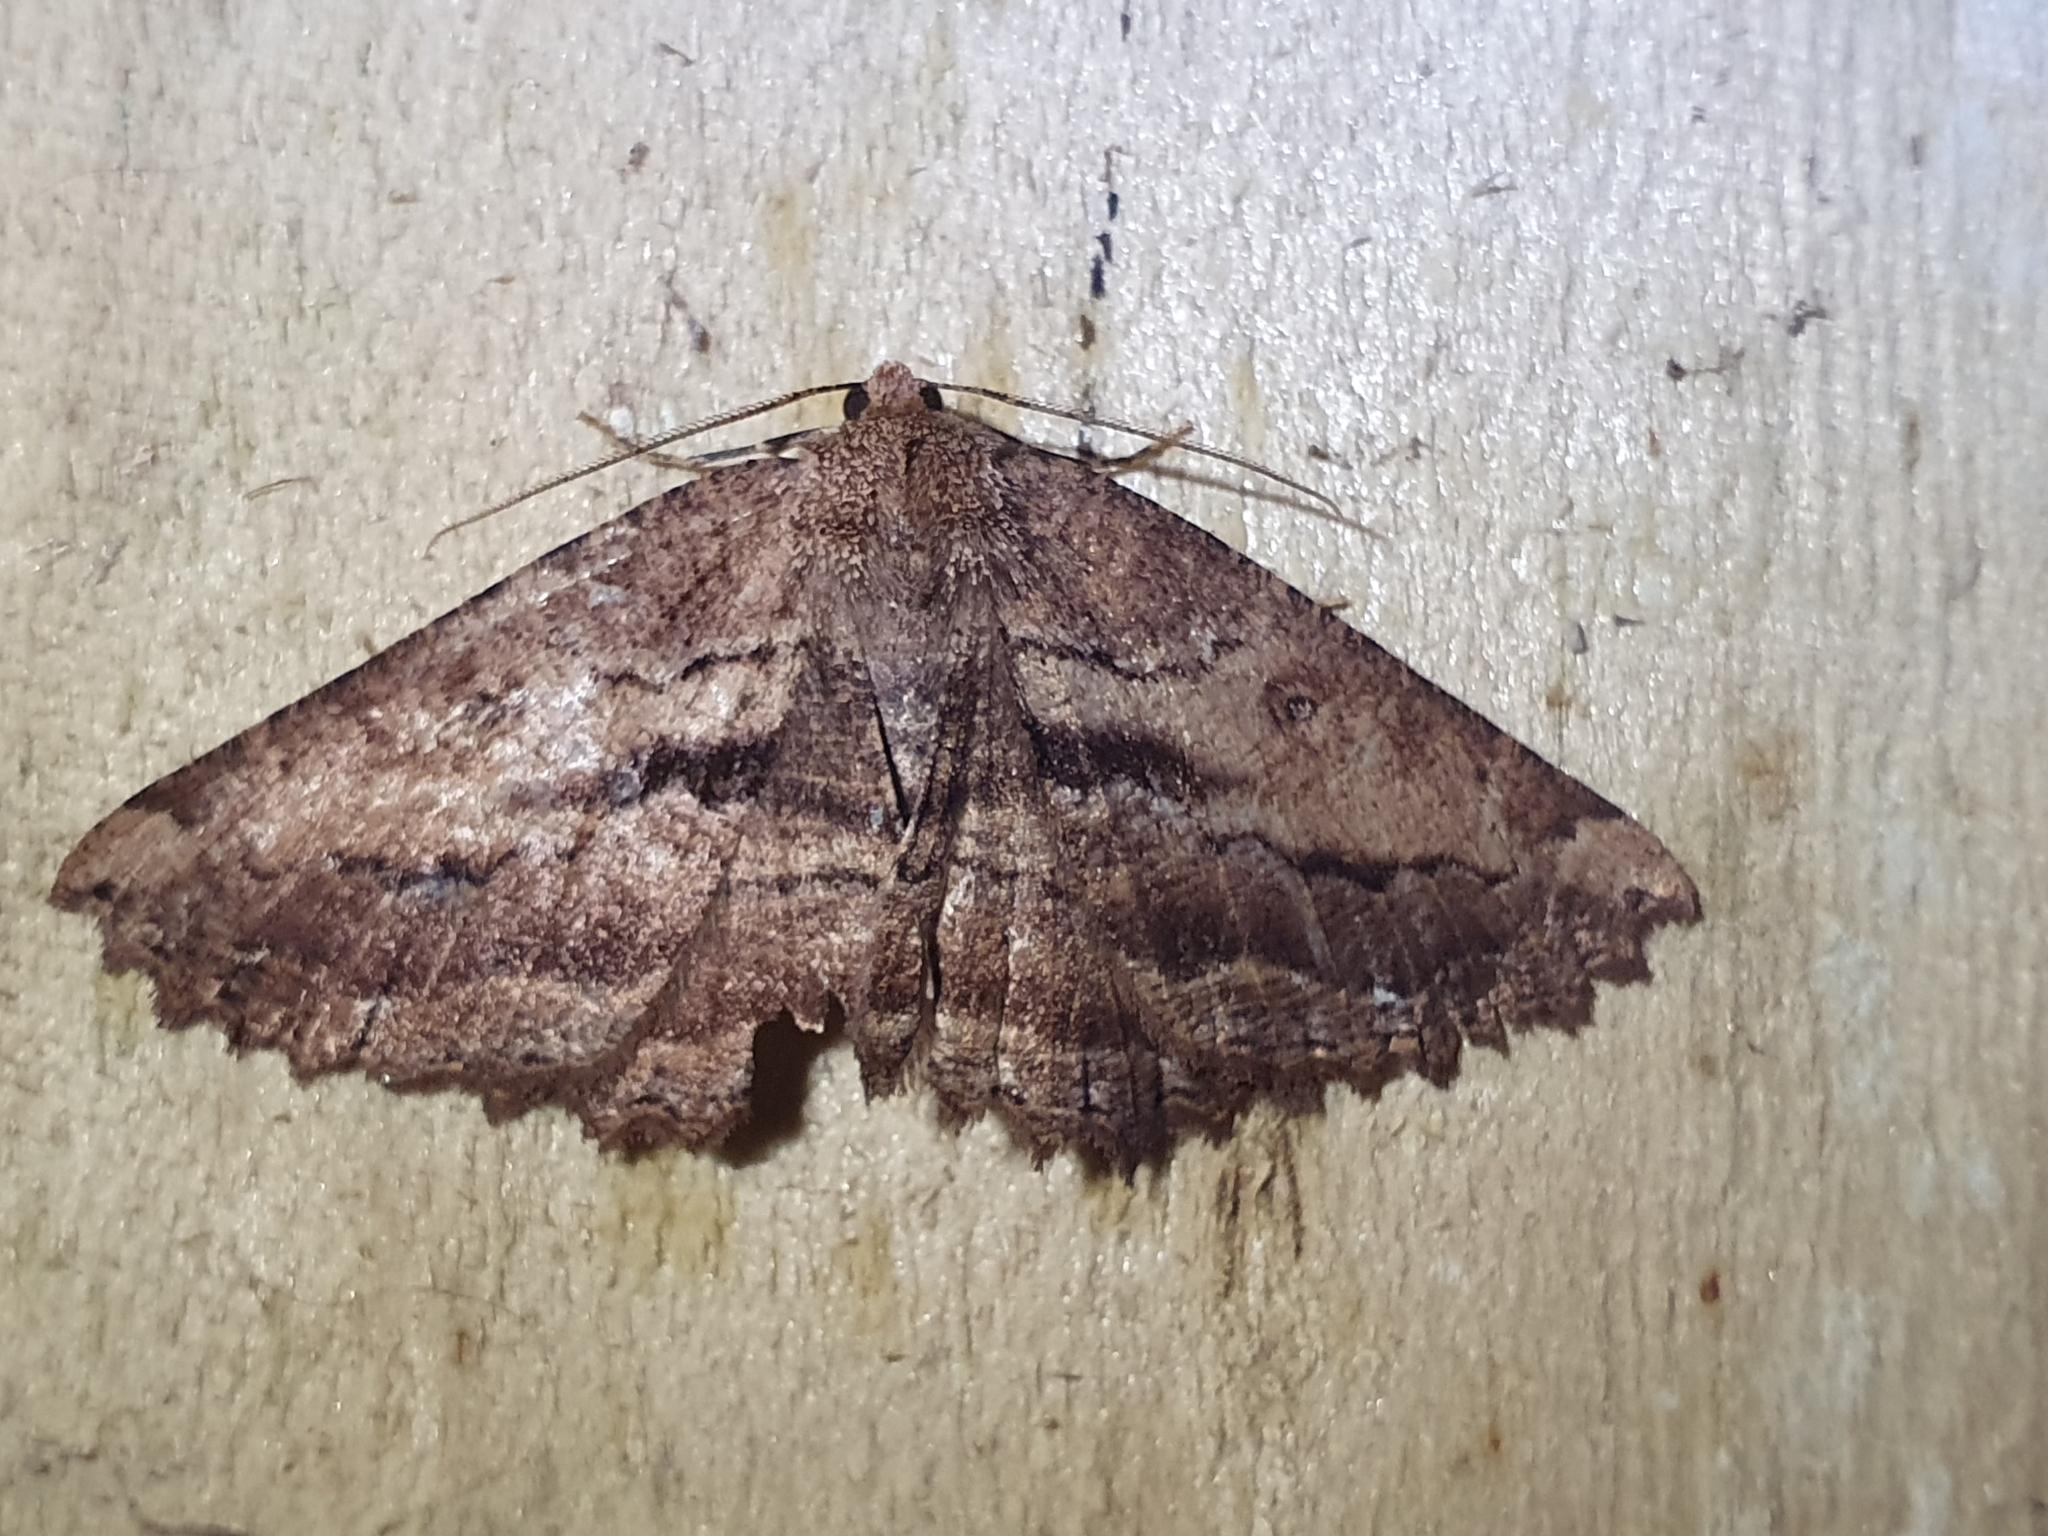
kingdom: Animalia
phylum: Arthropoda
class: Insecta
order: Lepidoptera
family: Geometridae
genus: Gellonia
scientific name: Gellonia dejectaria
